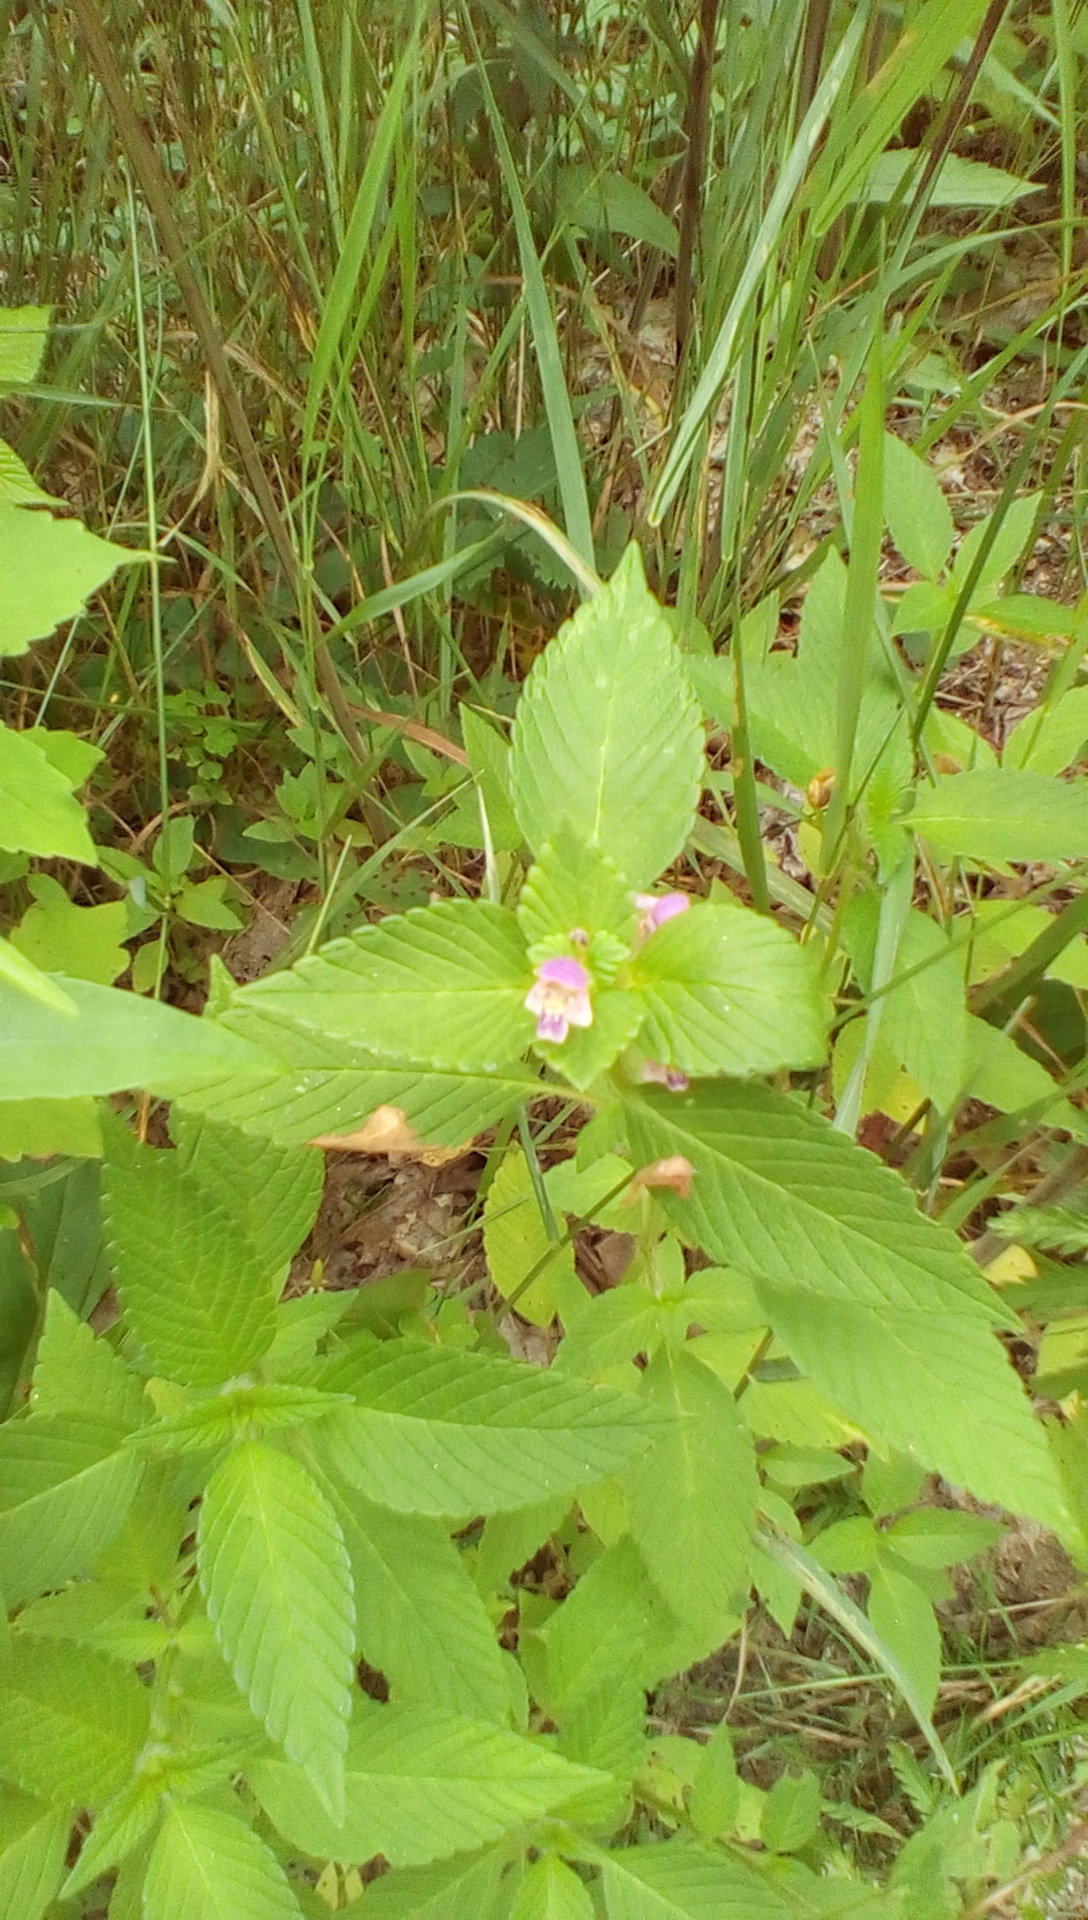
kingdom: Plantae
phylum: Tracheophyta
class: Magnoliopsida
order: Lamiales
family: Lamiaceae
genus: Galeopsis
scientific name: Galeopsis tetrahit
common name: Common hemp-nettle
